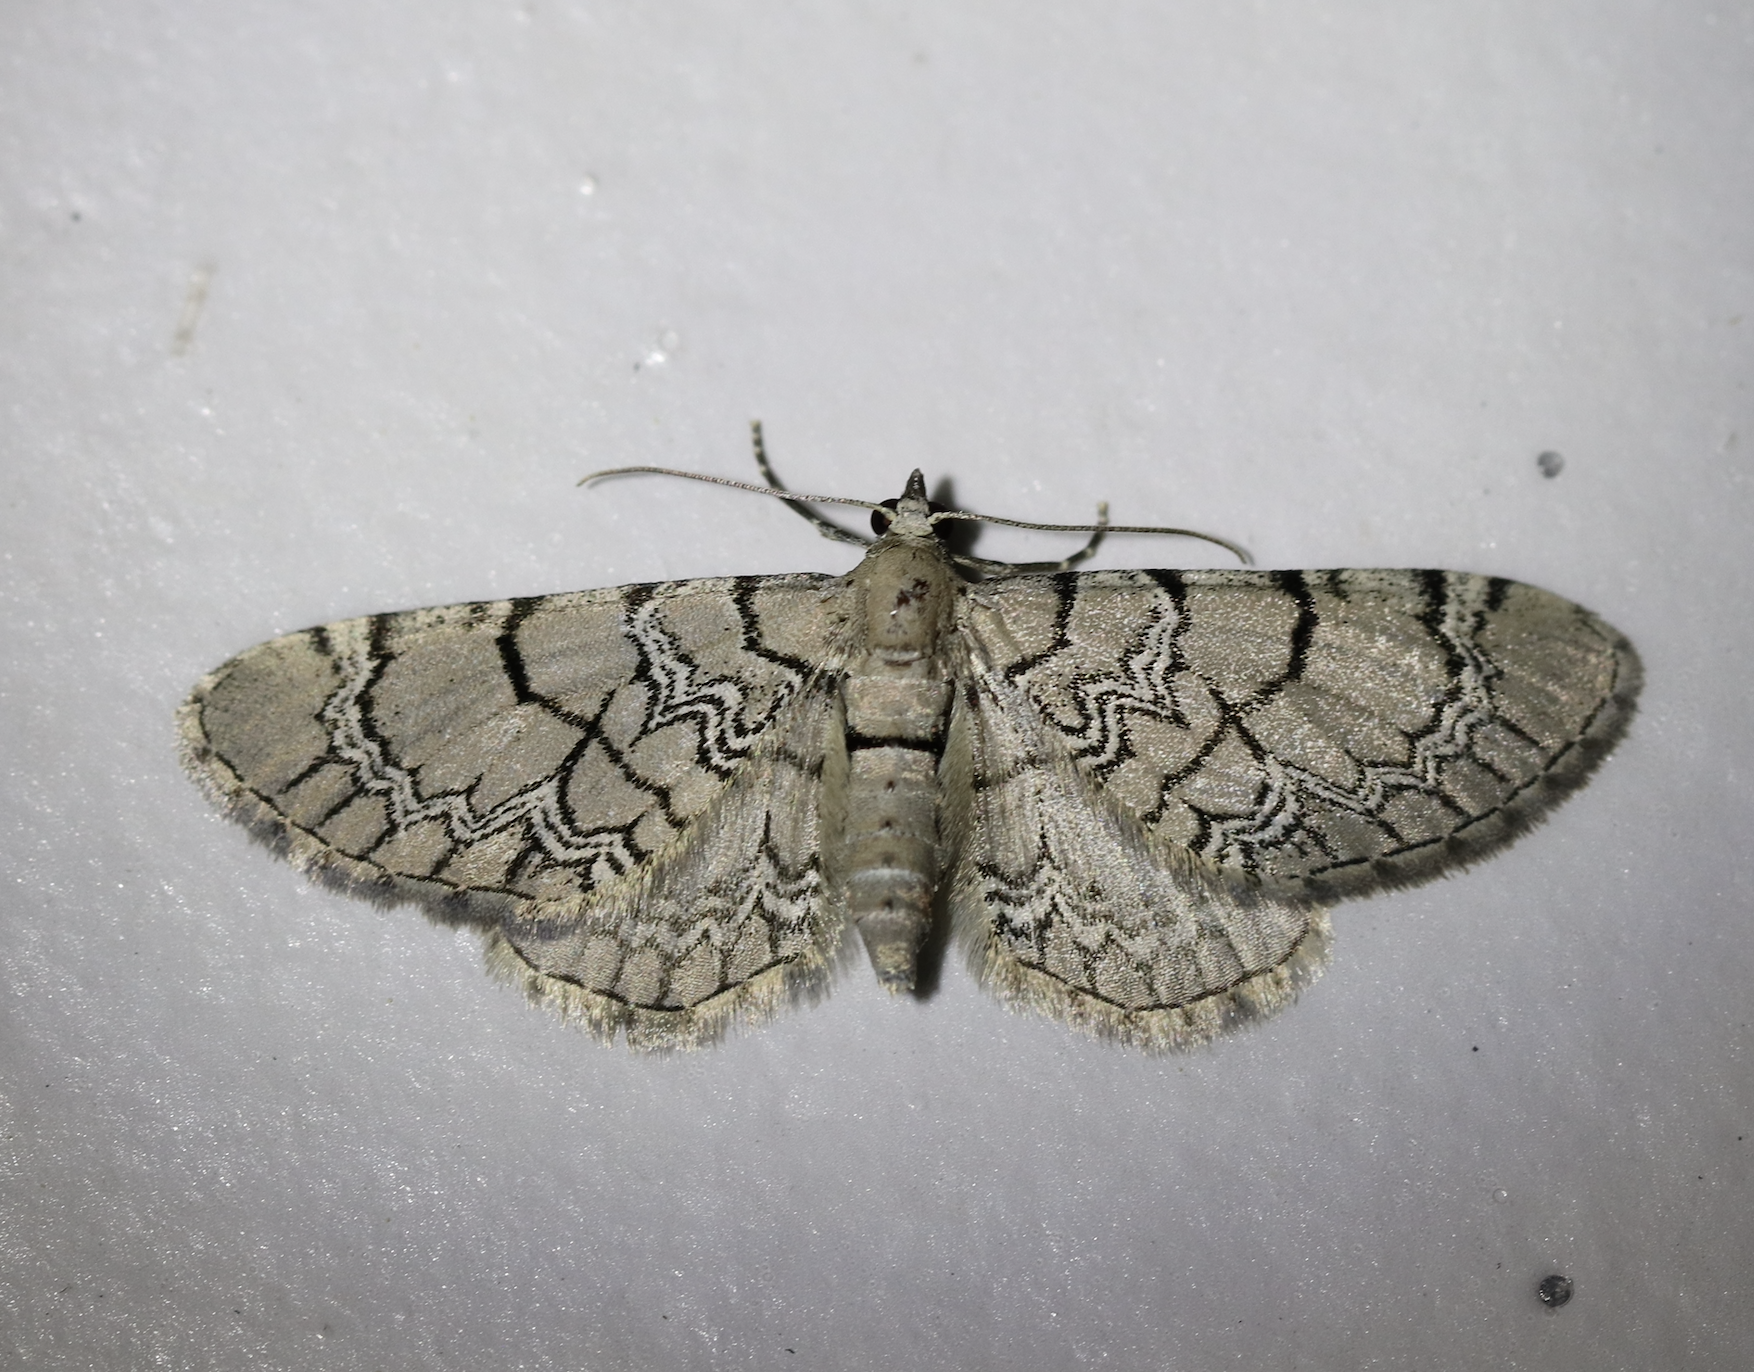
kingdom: Animalia
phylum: Arthropoda
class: Insecta
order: Lepidoptera
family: Geometridae
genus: Eupithecia
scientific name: Eupithecia venosata
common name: Netted pug
